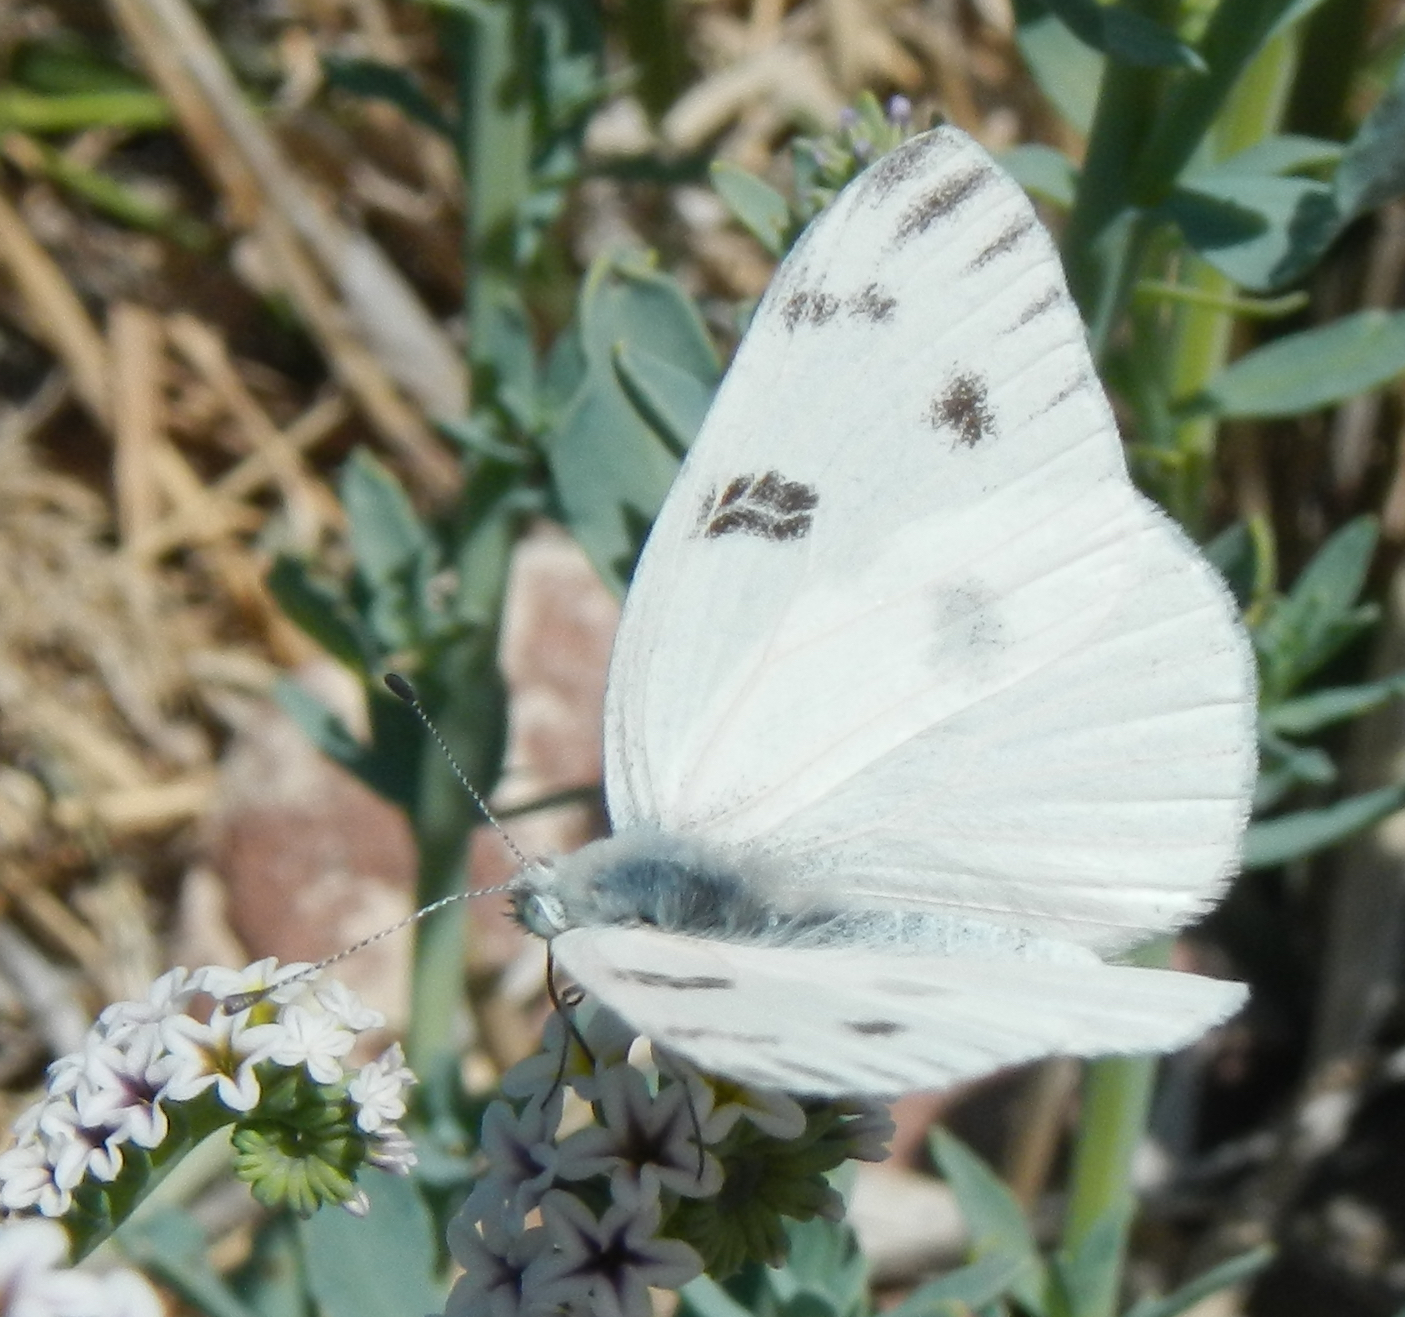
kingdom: Animalia
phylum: Arthropoda
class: Insecta
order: Lepidoptera
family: Pieridae
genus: Pontia
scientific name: Pontia protodice
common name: Checkered white
